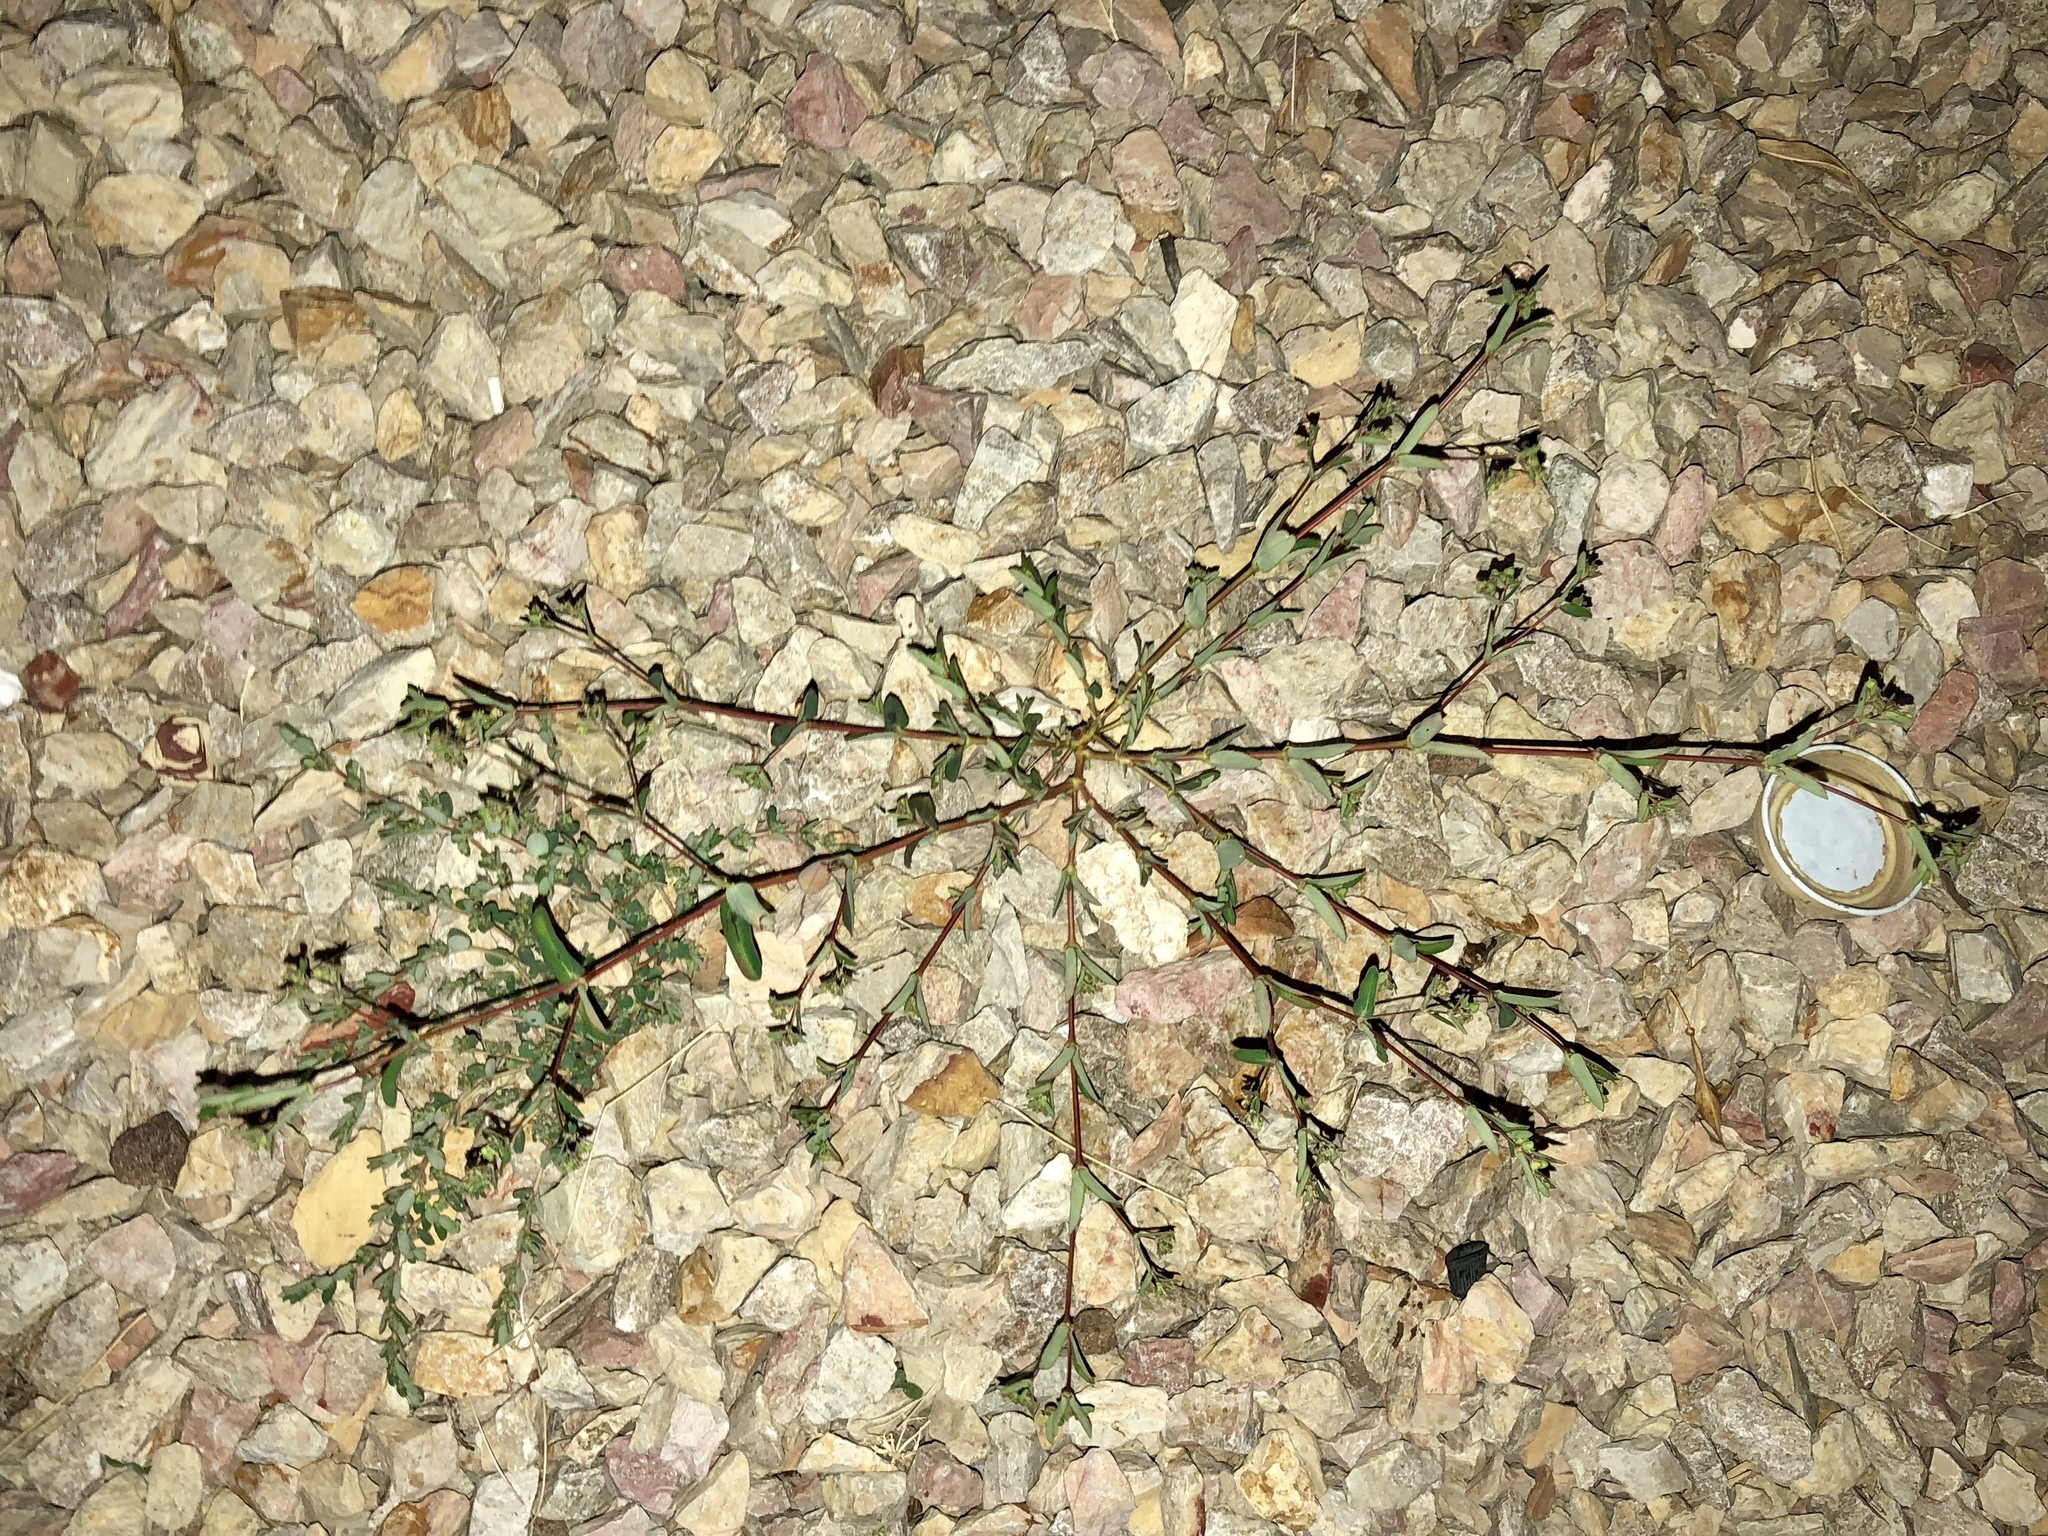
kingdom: Plantae
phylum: Tracheophyta
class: Magnoliopsida
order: Malpighiales
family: Euphorbiaceae
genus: Euphorbia
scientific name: Euphorbia hyssopifolia
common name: Hyssopleaf sandmat
